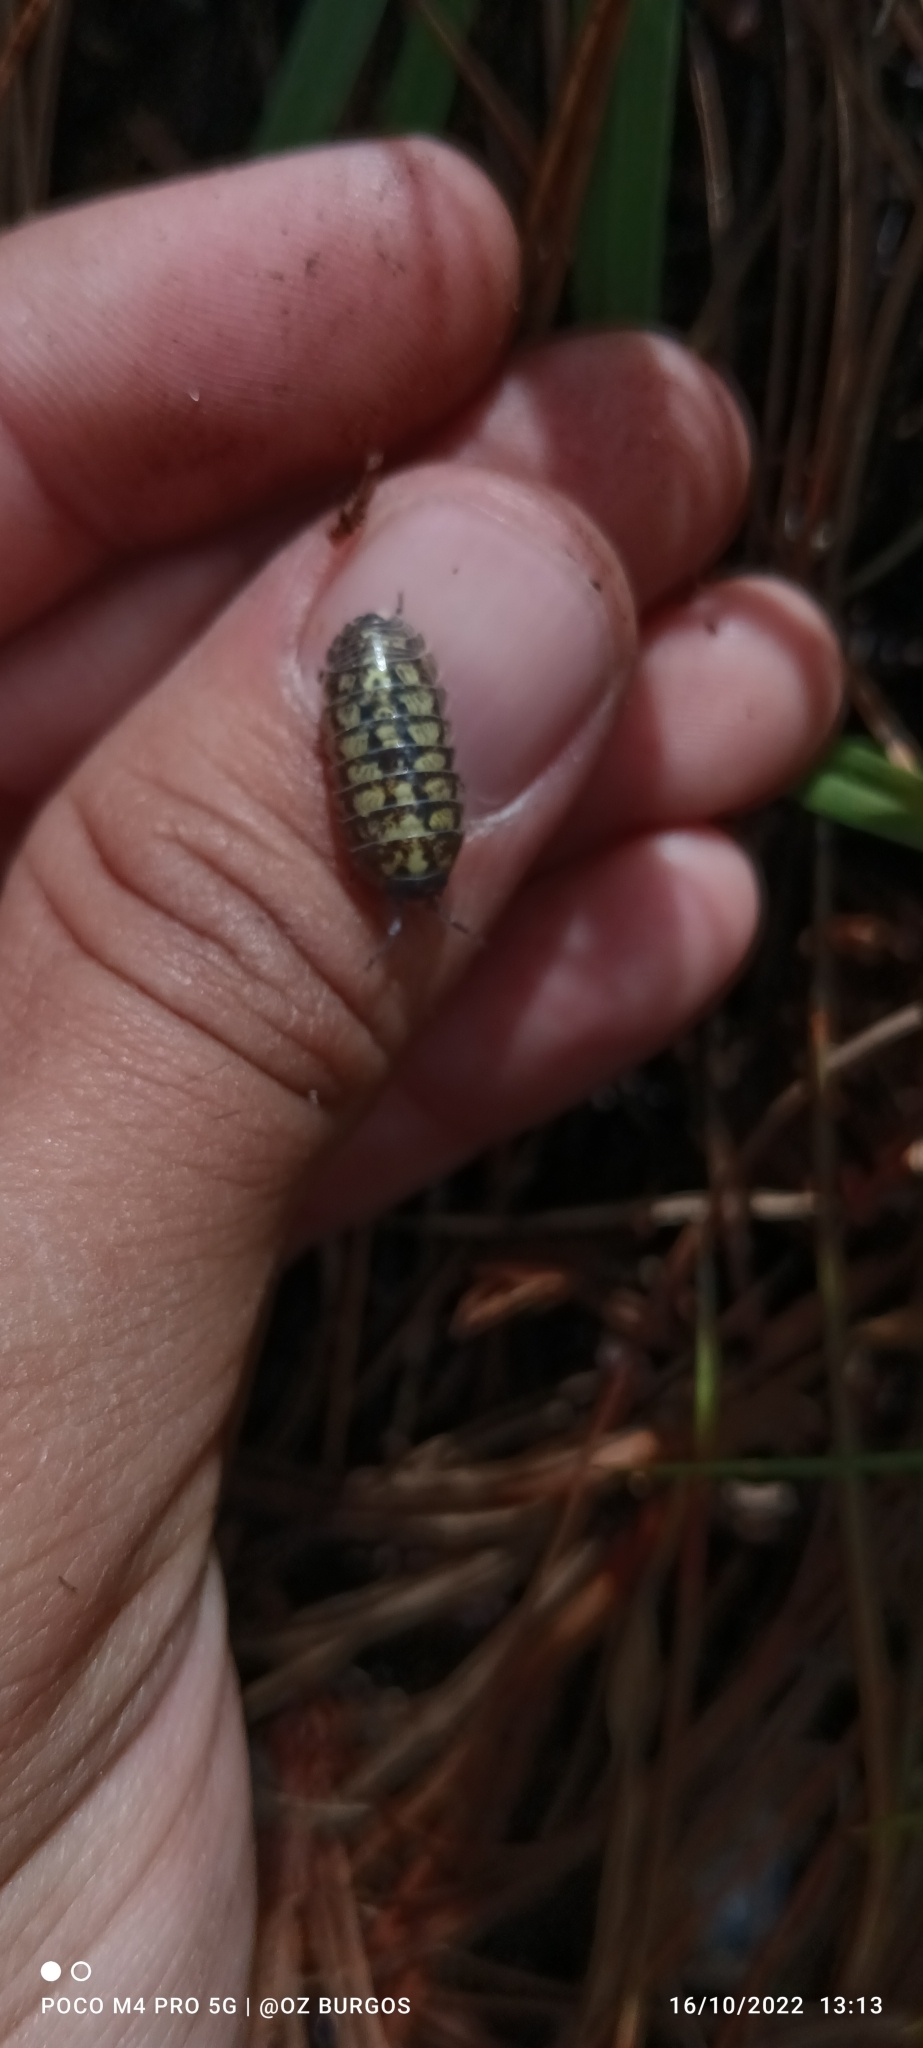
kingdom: Animalia
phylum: Arthropoda
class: Malacostraca
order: Isopoda
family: Armadillidiidae
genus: Armadillidium
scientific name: Armadillidium vulgare
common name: Common pill woodlouse
